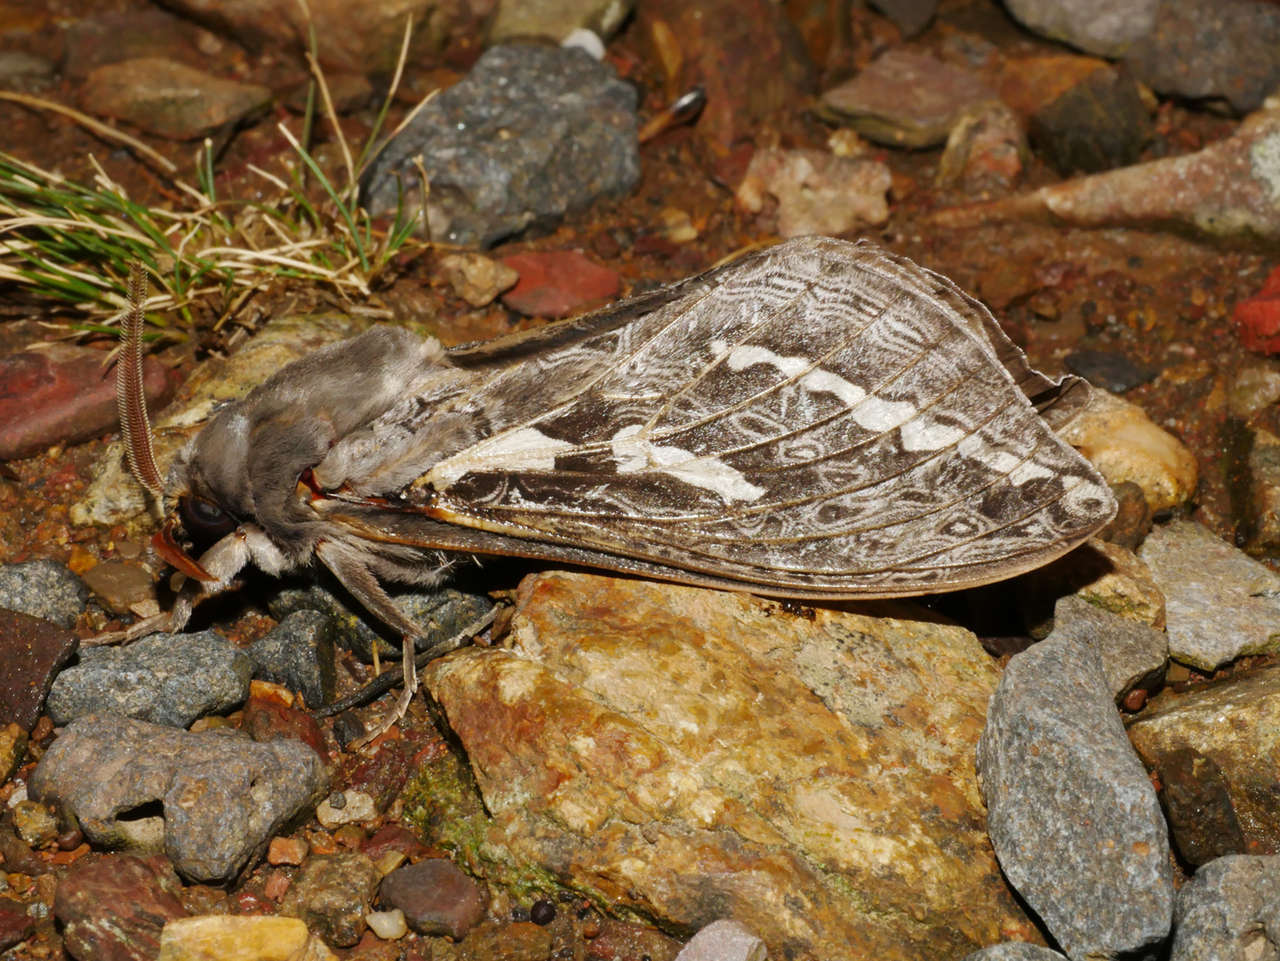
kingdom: Animalia
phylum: Arthropoda
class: Insecta
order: Lepidoptera
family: Hepialidae
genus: Abantiades
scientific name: Abantiades atripalpis
